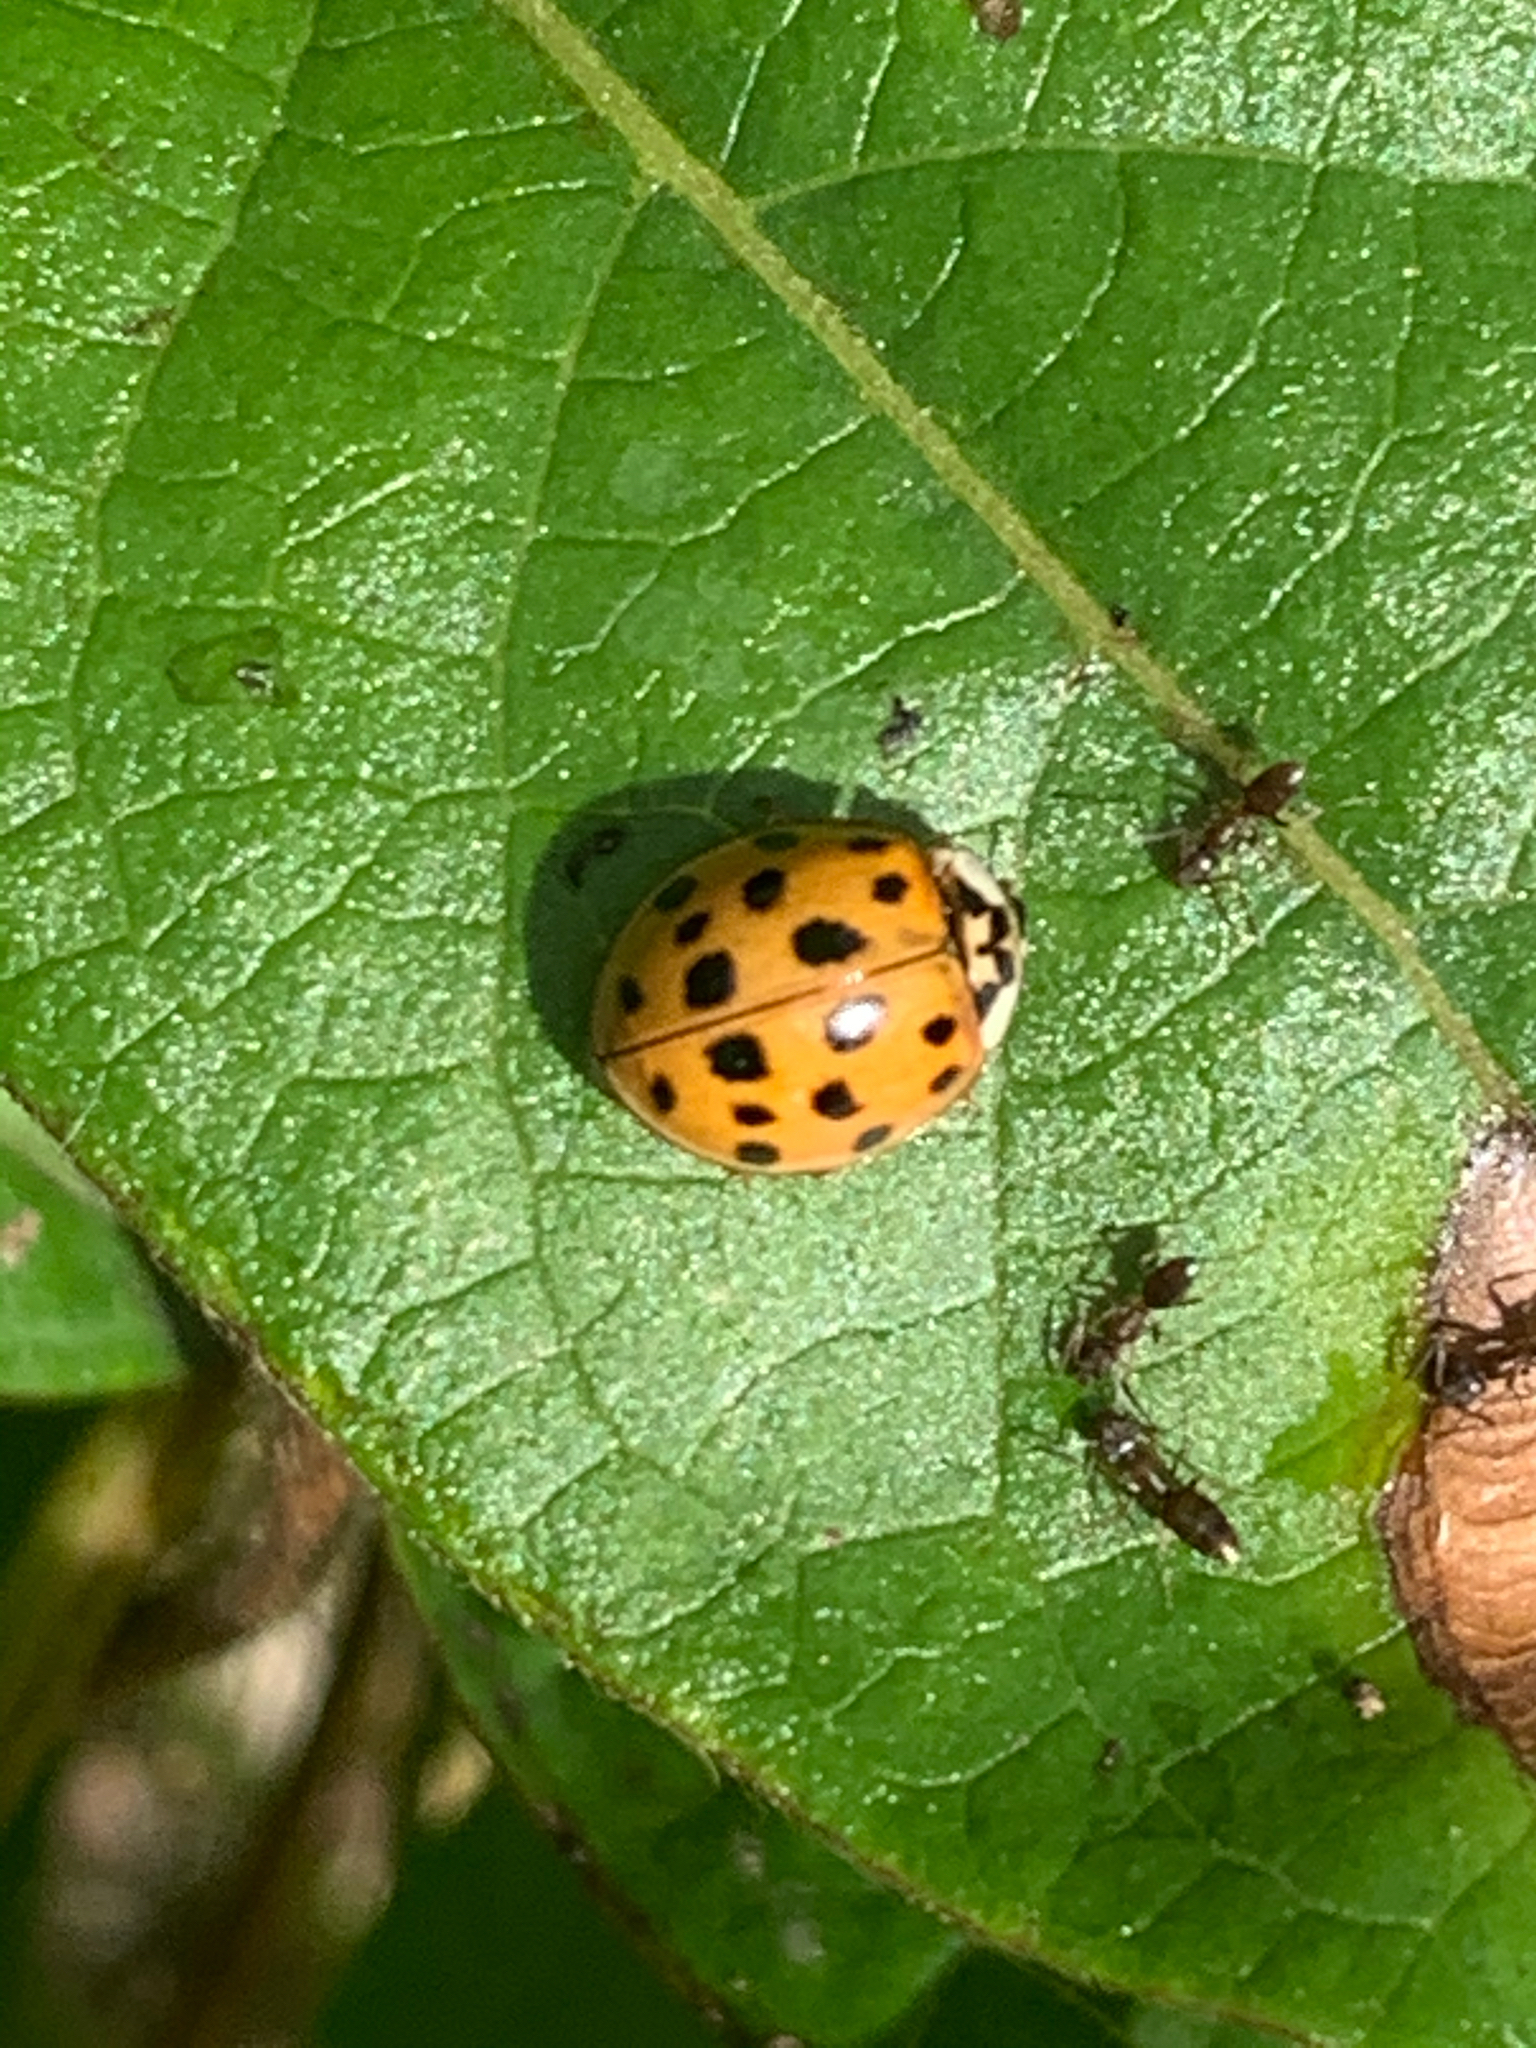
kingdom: Animalia
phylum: Arthropoda
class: Insecta
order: Coleoptera
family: Coccinellidae
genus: Harmonia
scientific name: Harmonia axyridis
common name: Harlequin ladybird
